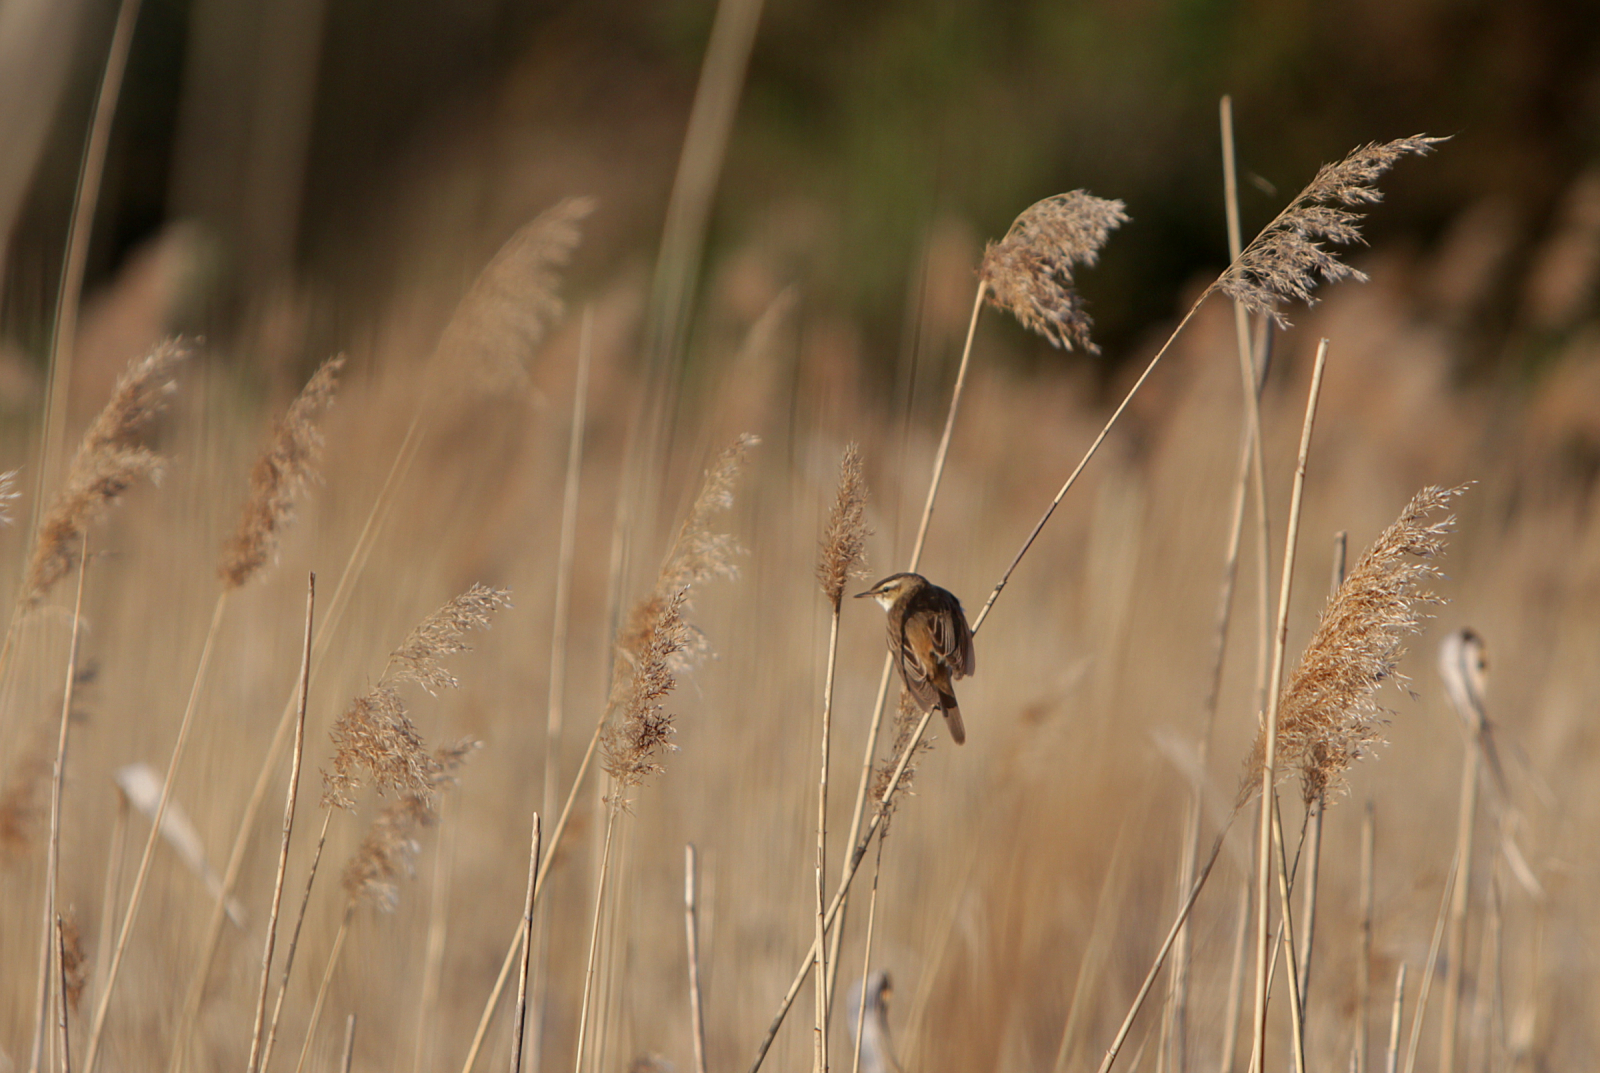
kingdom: Animalia
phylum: Chordata
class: Aves
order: Passeriformes
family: Acrocephalidae
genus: Acrocephalus
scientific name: Acrocephalus schoenobaenus
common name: Sedge warbler
